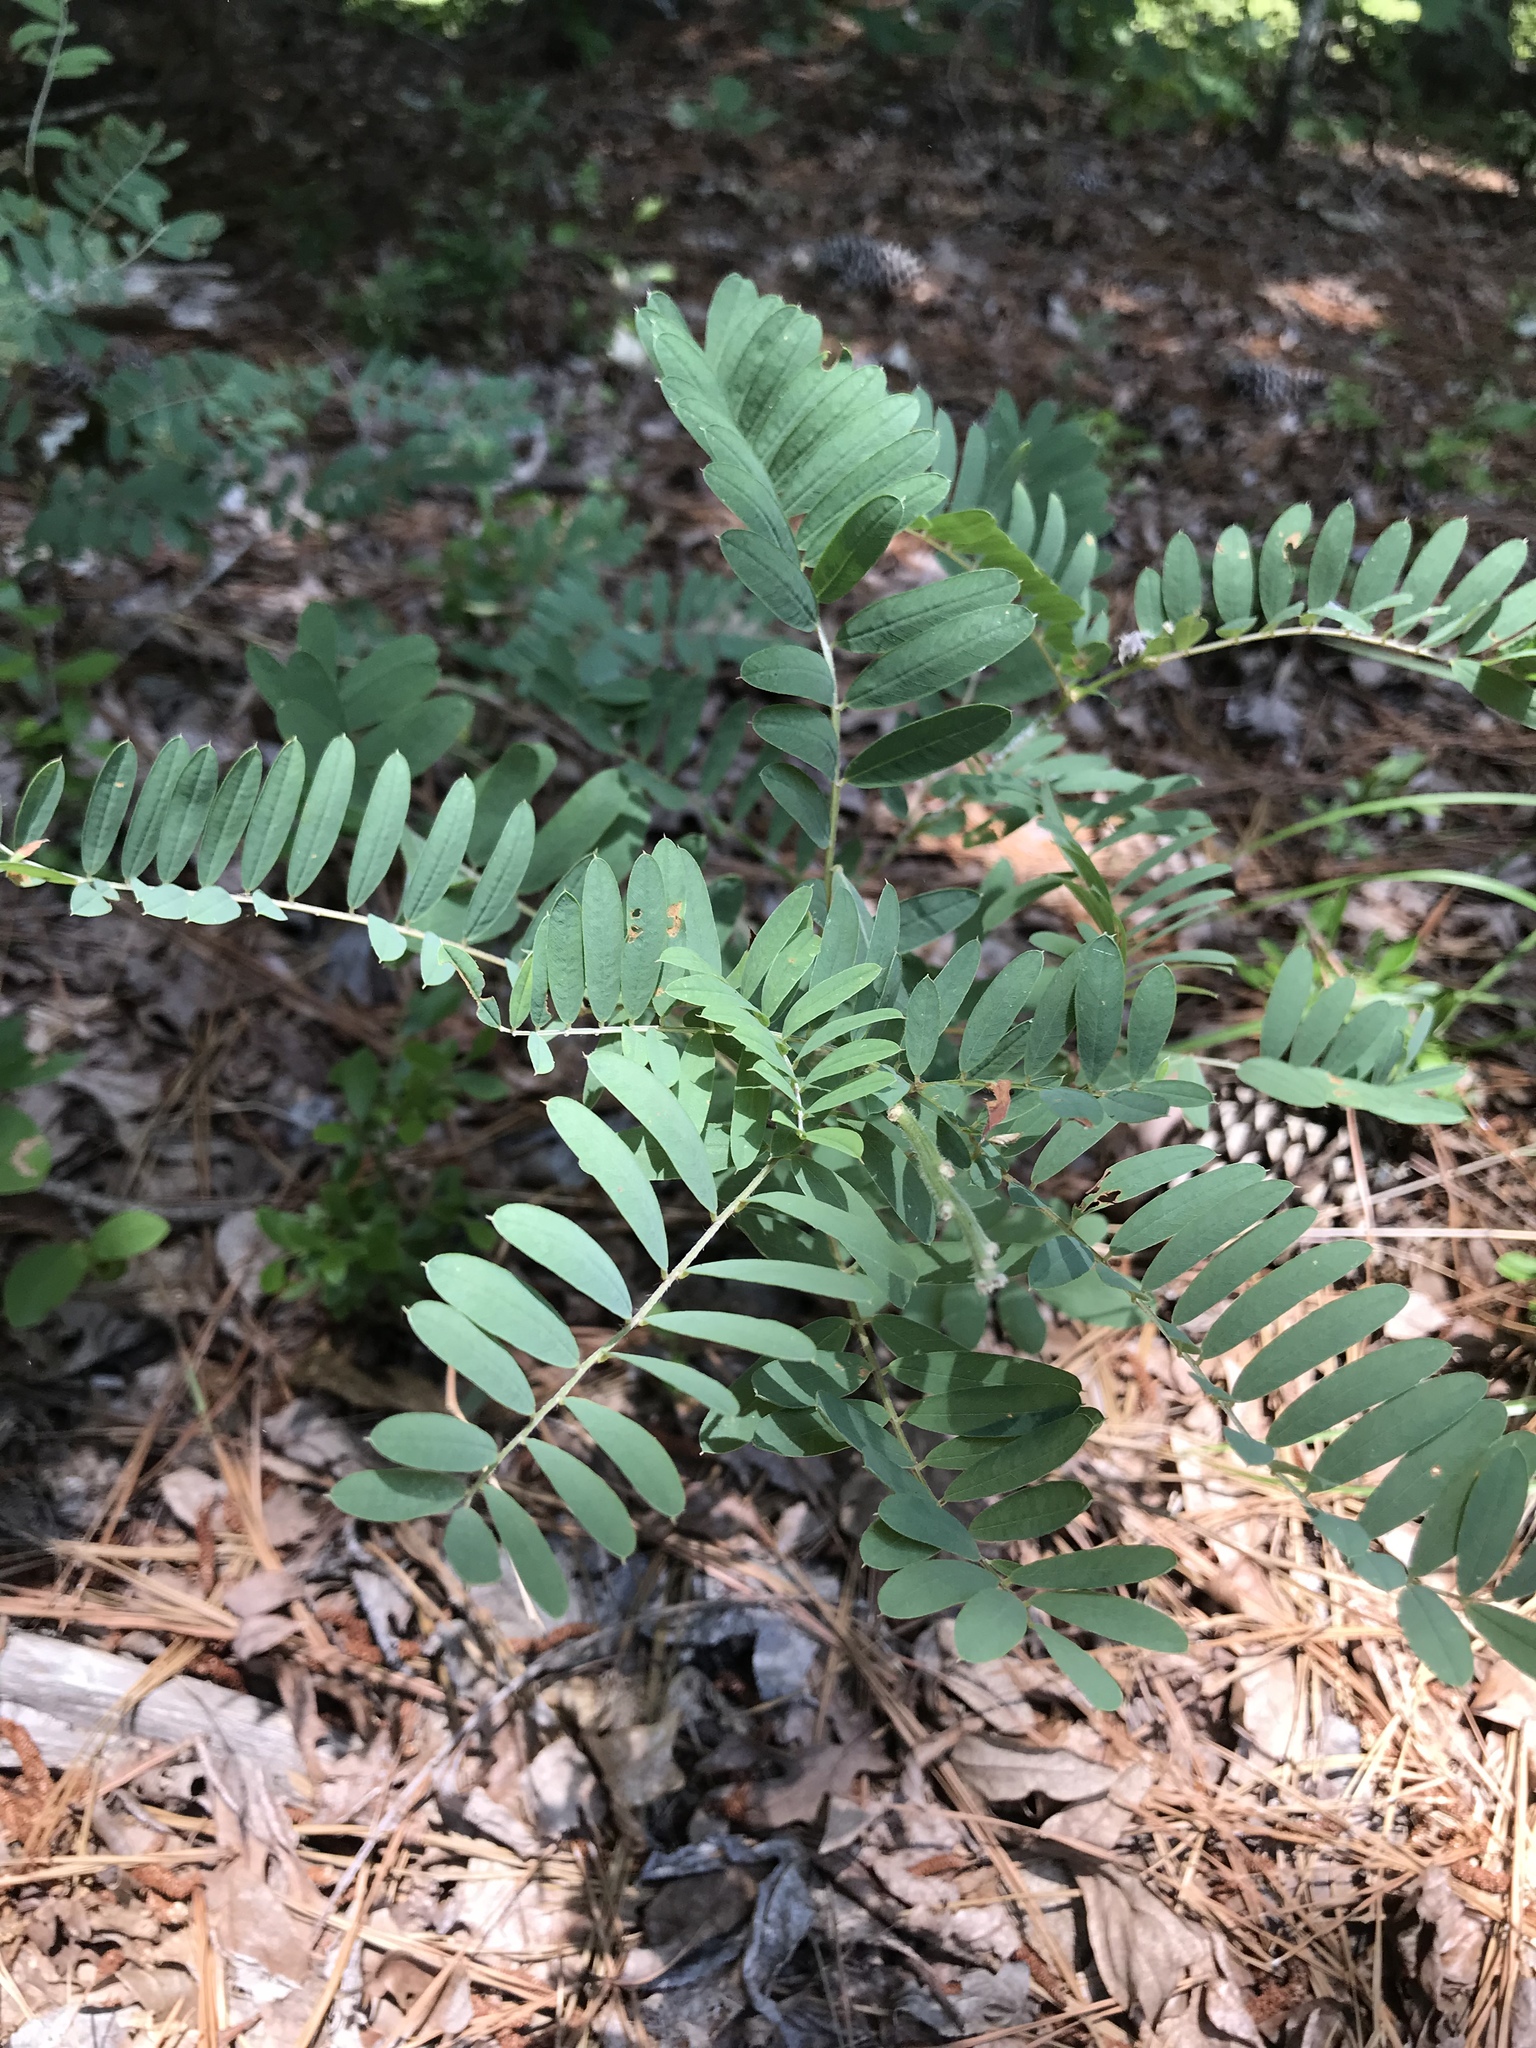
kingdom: Plantae
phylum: Tracheophyta
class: Magnoliopsida
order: Fabales
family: Fabaceae
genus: Tephrosia
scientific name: Tephrosia virginiana
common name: Rabbit-pea
